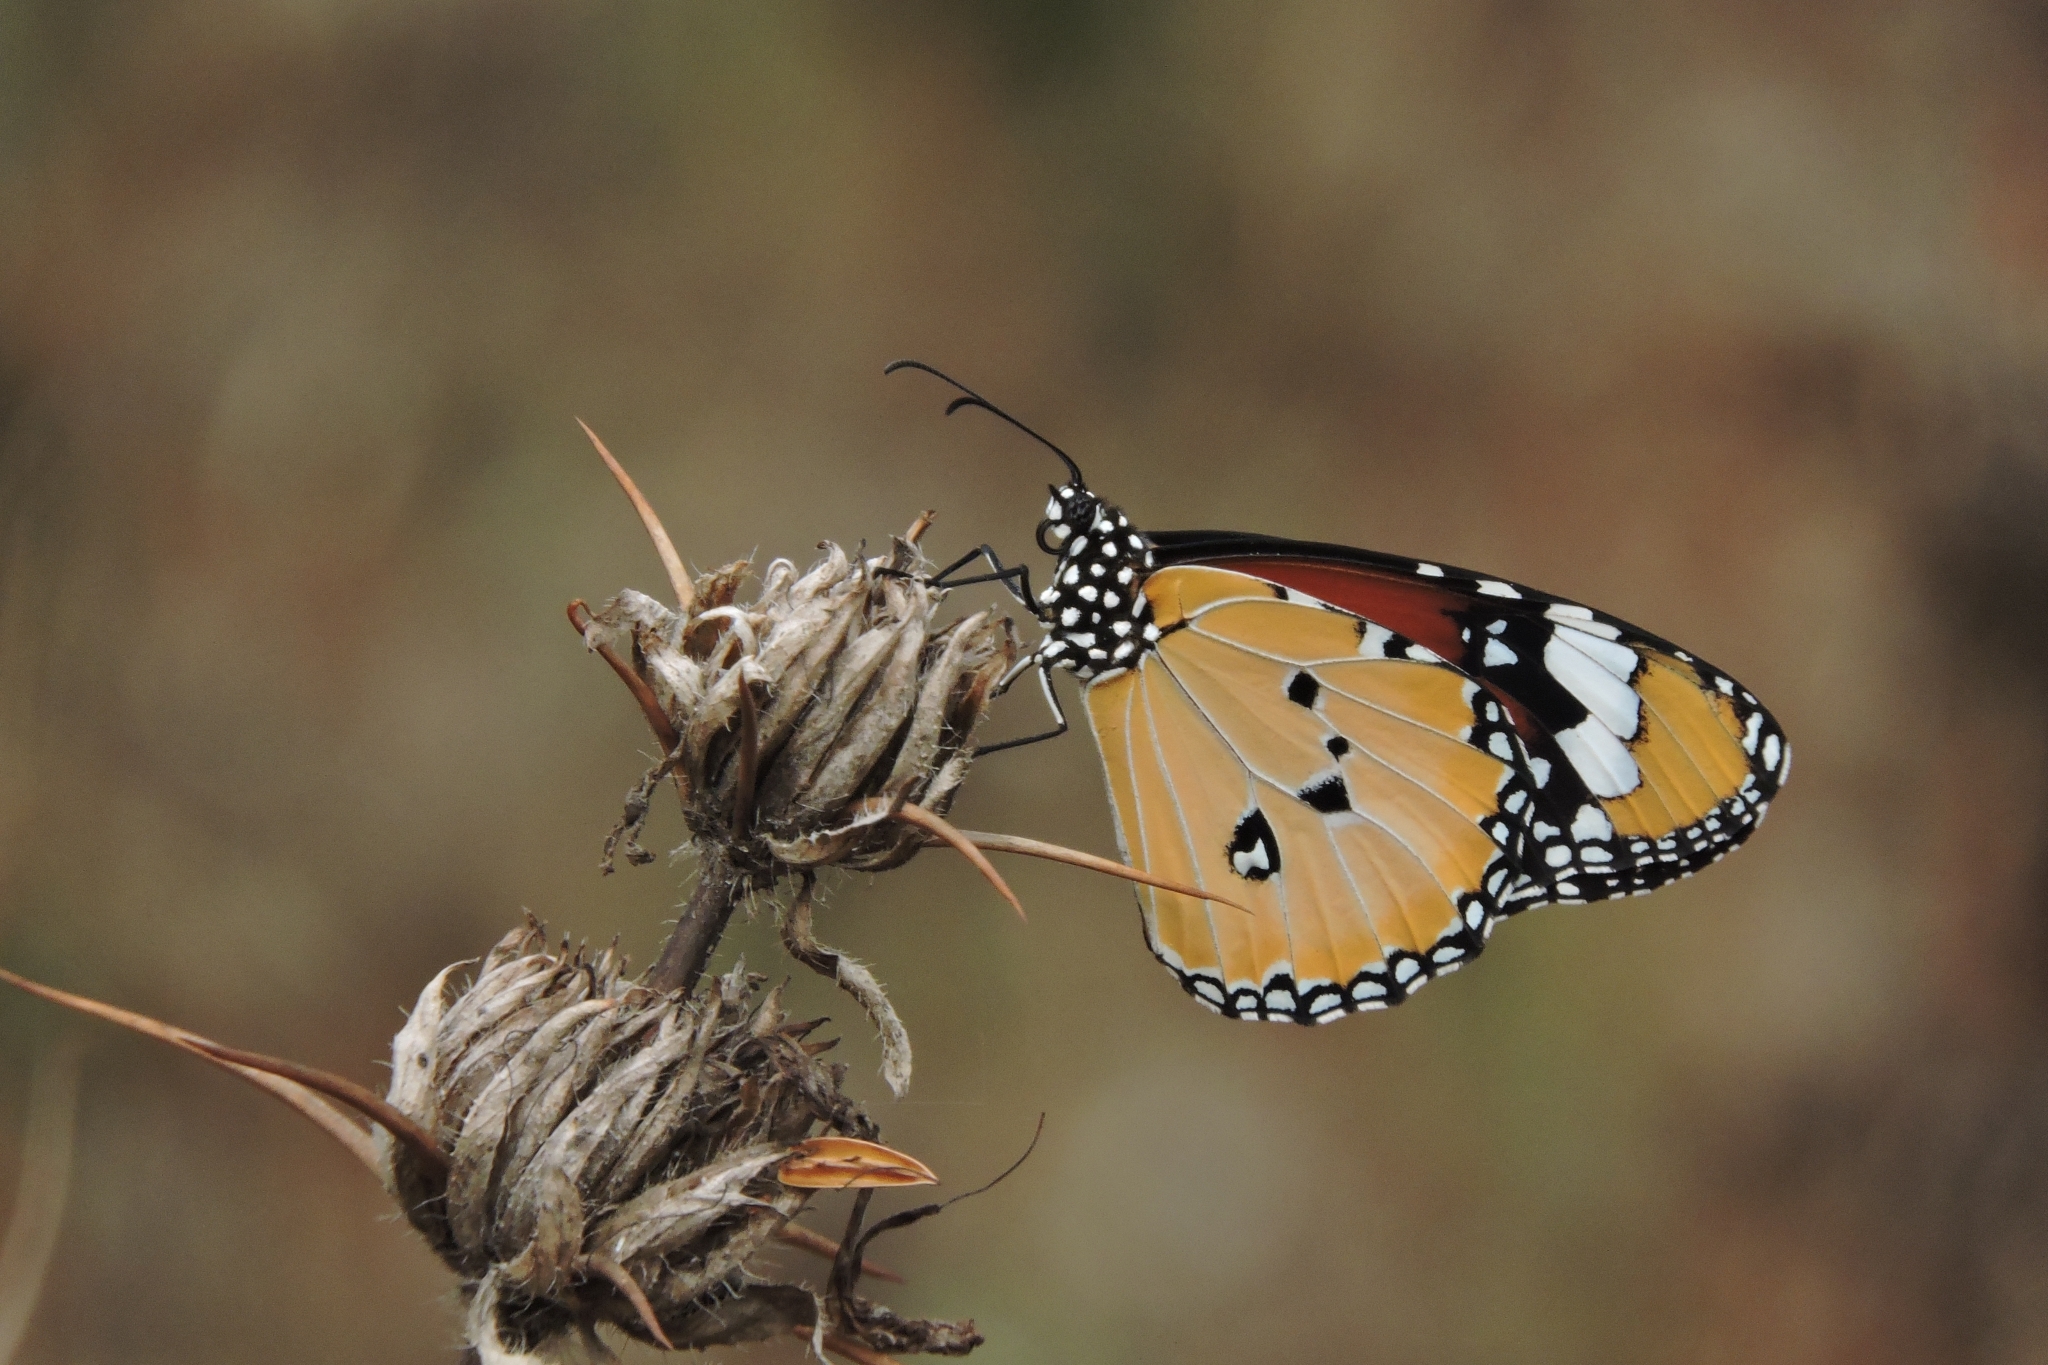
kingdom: Animalia
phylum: Arthropoda
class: Insecta
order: Lepidoptera
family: Nymphalidae
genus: Danaus
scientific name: Danaus chrysippus
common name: Plain tiger
